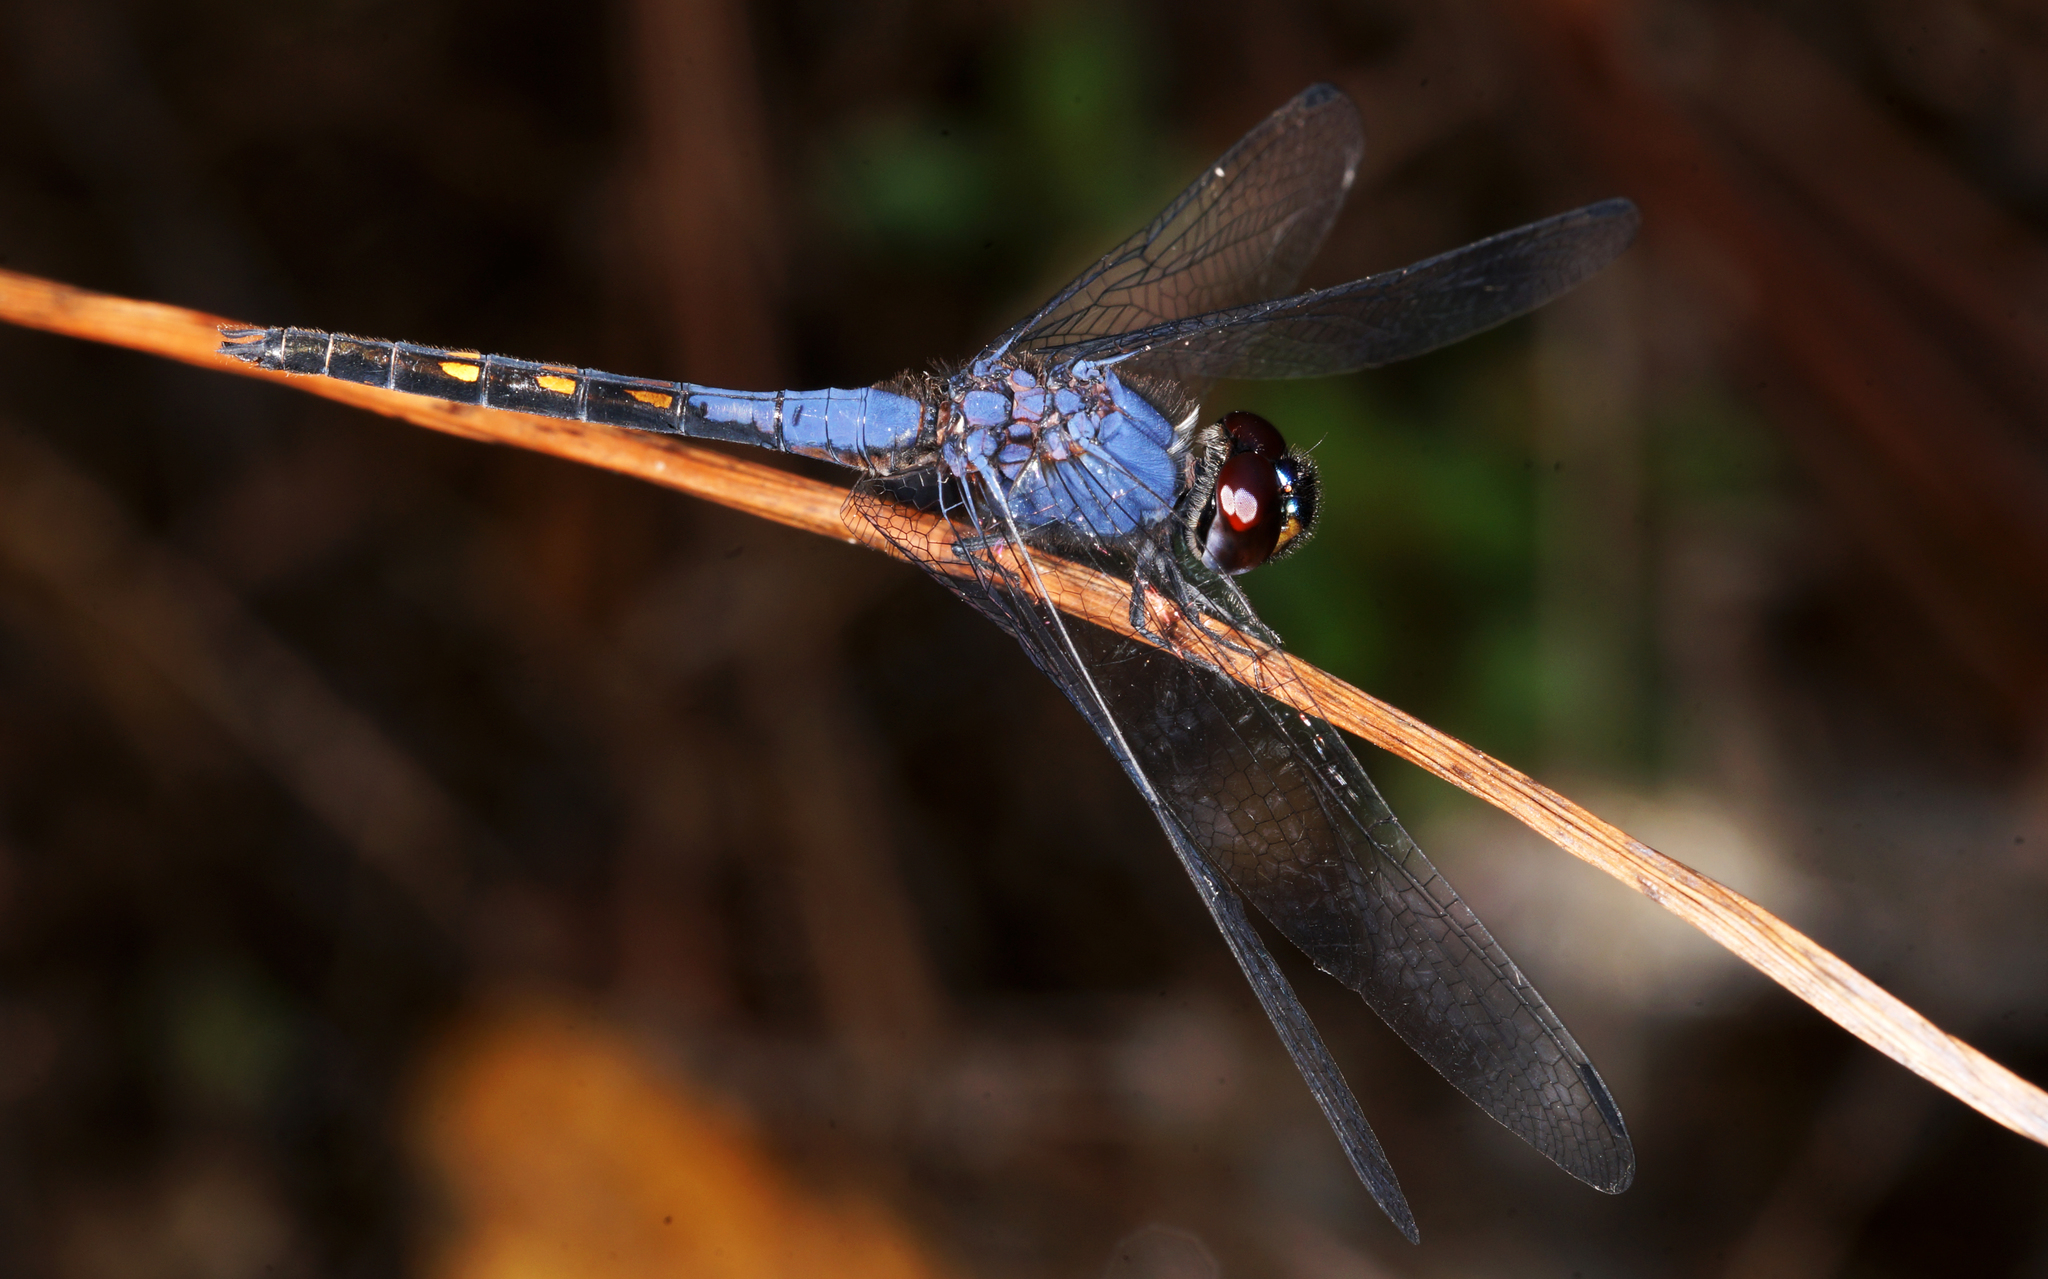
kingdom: Animalia
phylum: Arthropoda
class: Insecta
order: Odonata
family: Libellulidae
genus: Trithemis
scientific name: Trithemis festiva
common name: Indigo dropwing
